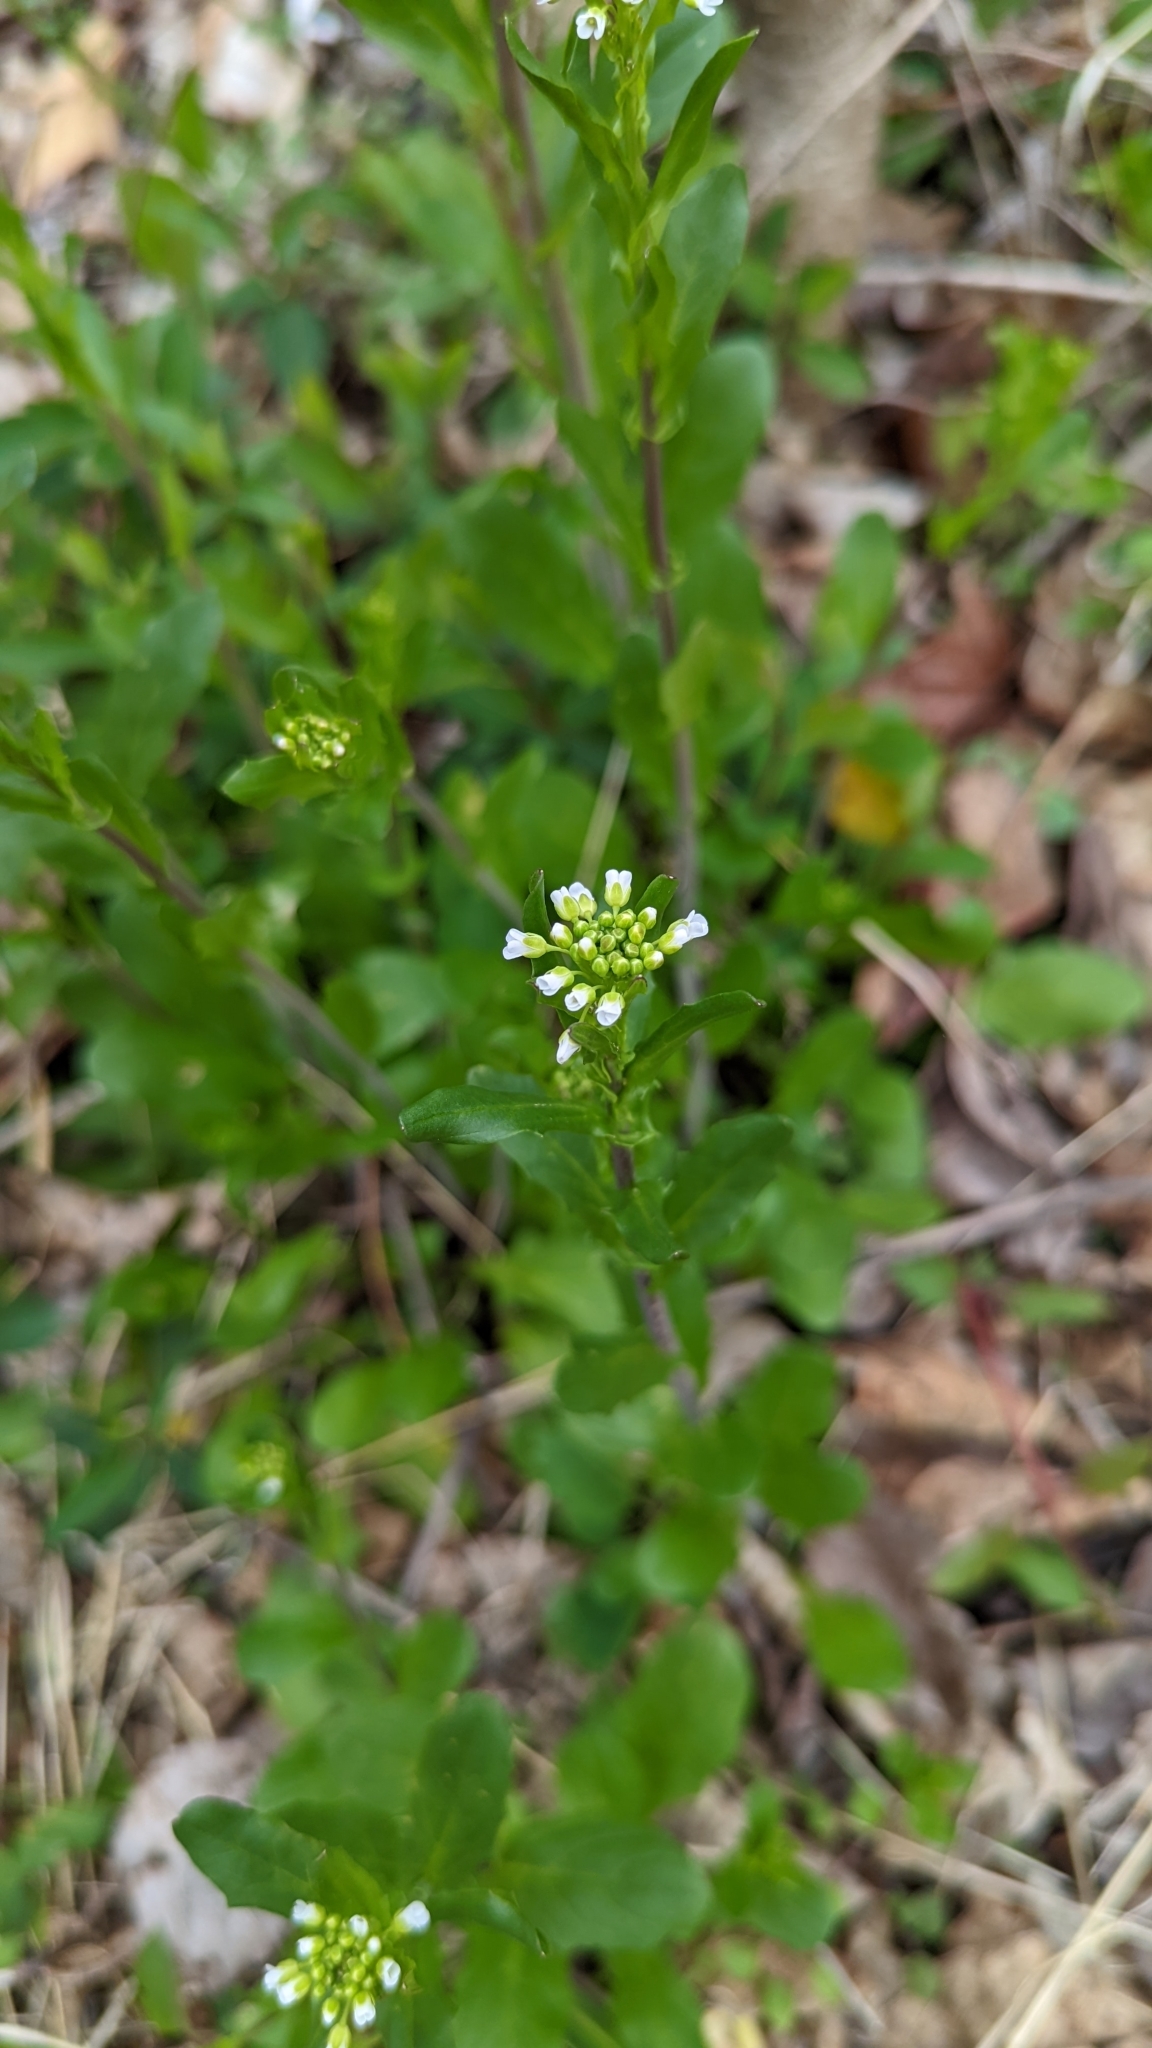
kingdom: Plantae
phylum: Tracheophyta
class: Magnoliopsida
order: Brassicales
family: Brassicaceae
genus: Mummenhoffia
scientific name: Mummenhoffia alliacea
